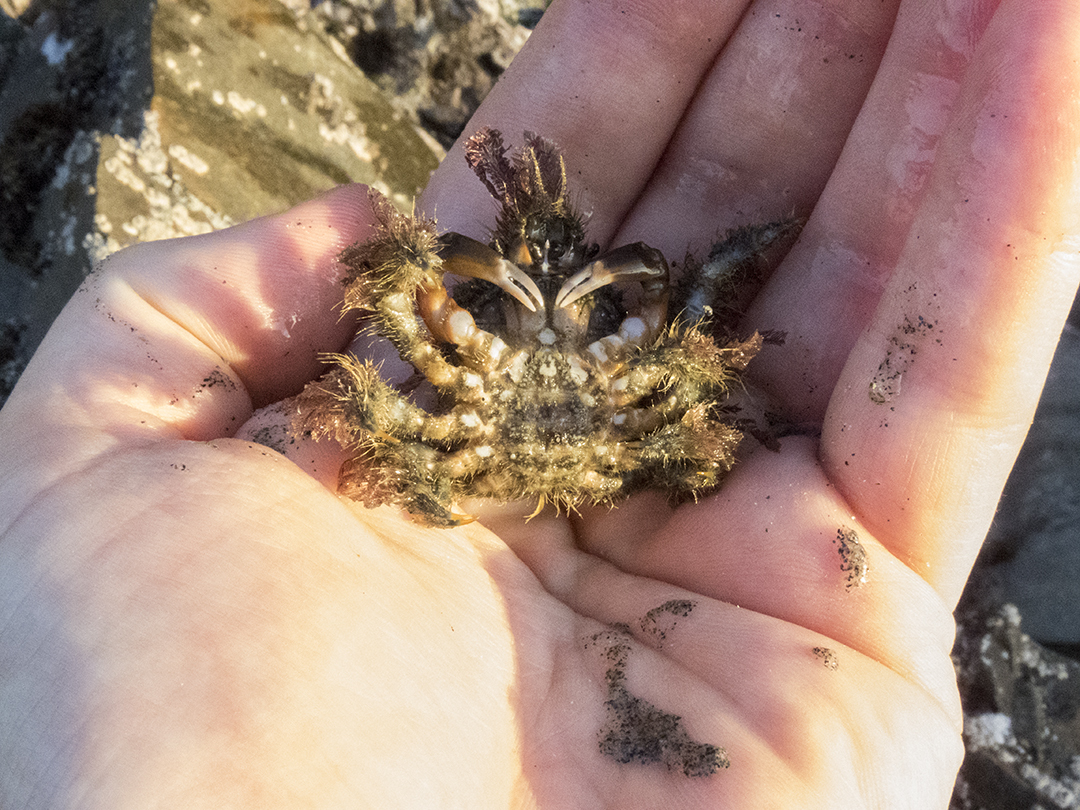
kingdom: Animalia
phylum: Arthropoda
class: Malacostraca
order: Decapoda
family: Majidae
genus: Notomithrax
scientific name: Notomithrax ursus
